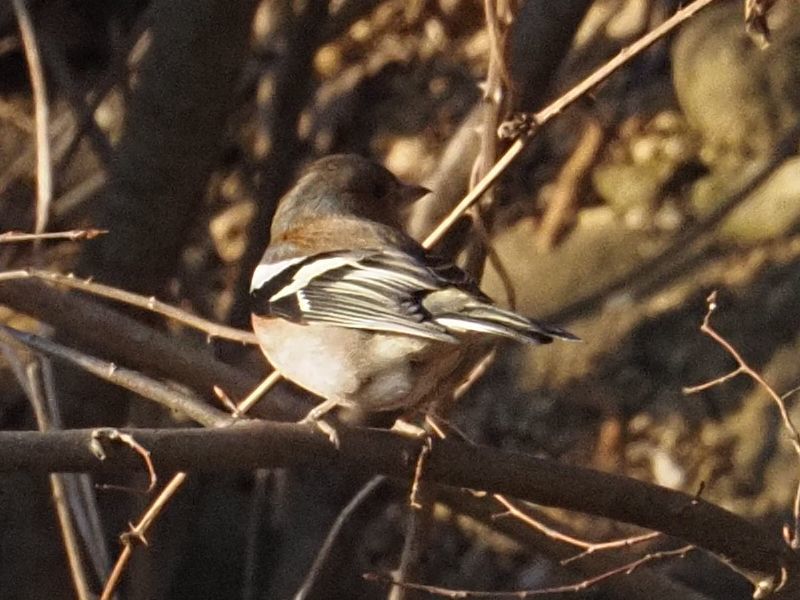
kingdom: Animalia
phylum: Chordata
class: Aves
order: Passeriformes
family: Fringillidae
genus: Fringilla
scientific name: Fringilla coelebs
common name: Common chaffinch
